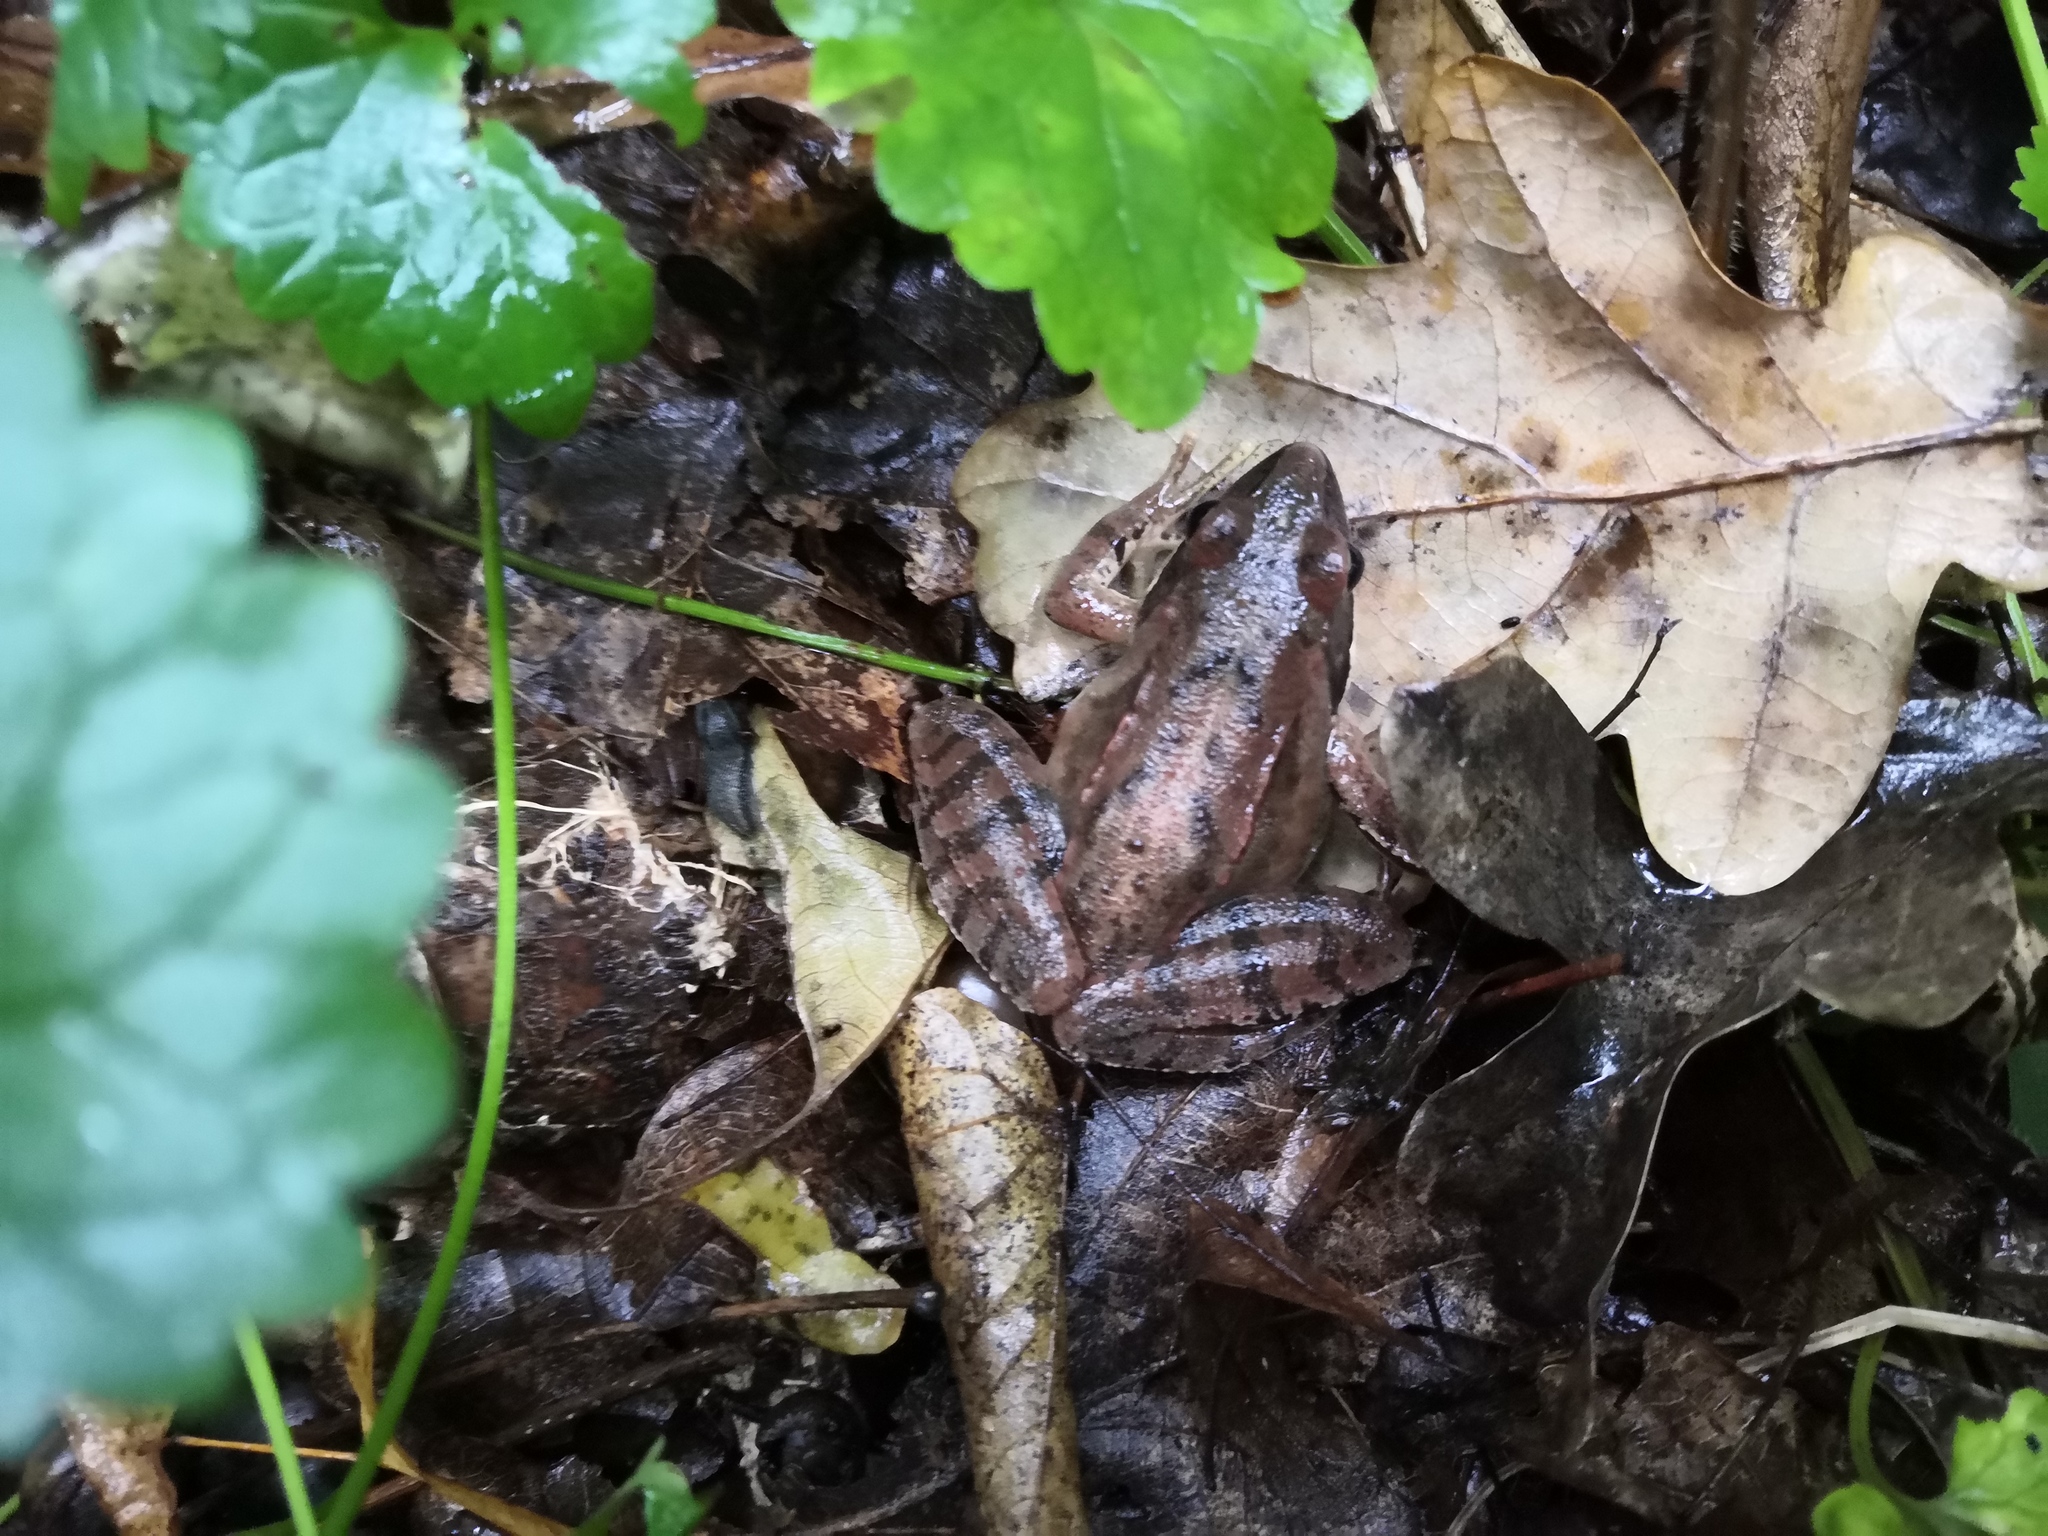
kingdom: Animalia
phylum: Chordata
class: Amphibia
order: Anura
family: Ranidae
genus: Rana
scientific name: Rana dalmatina
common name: Agile frog
